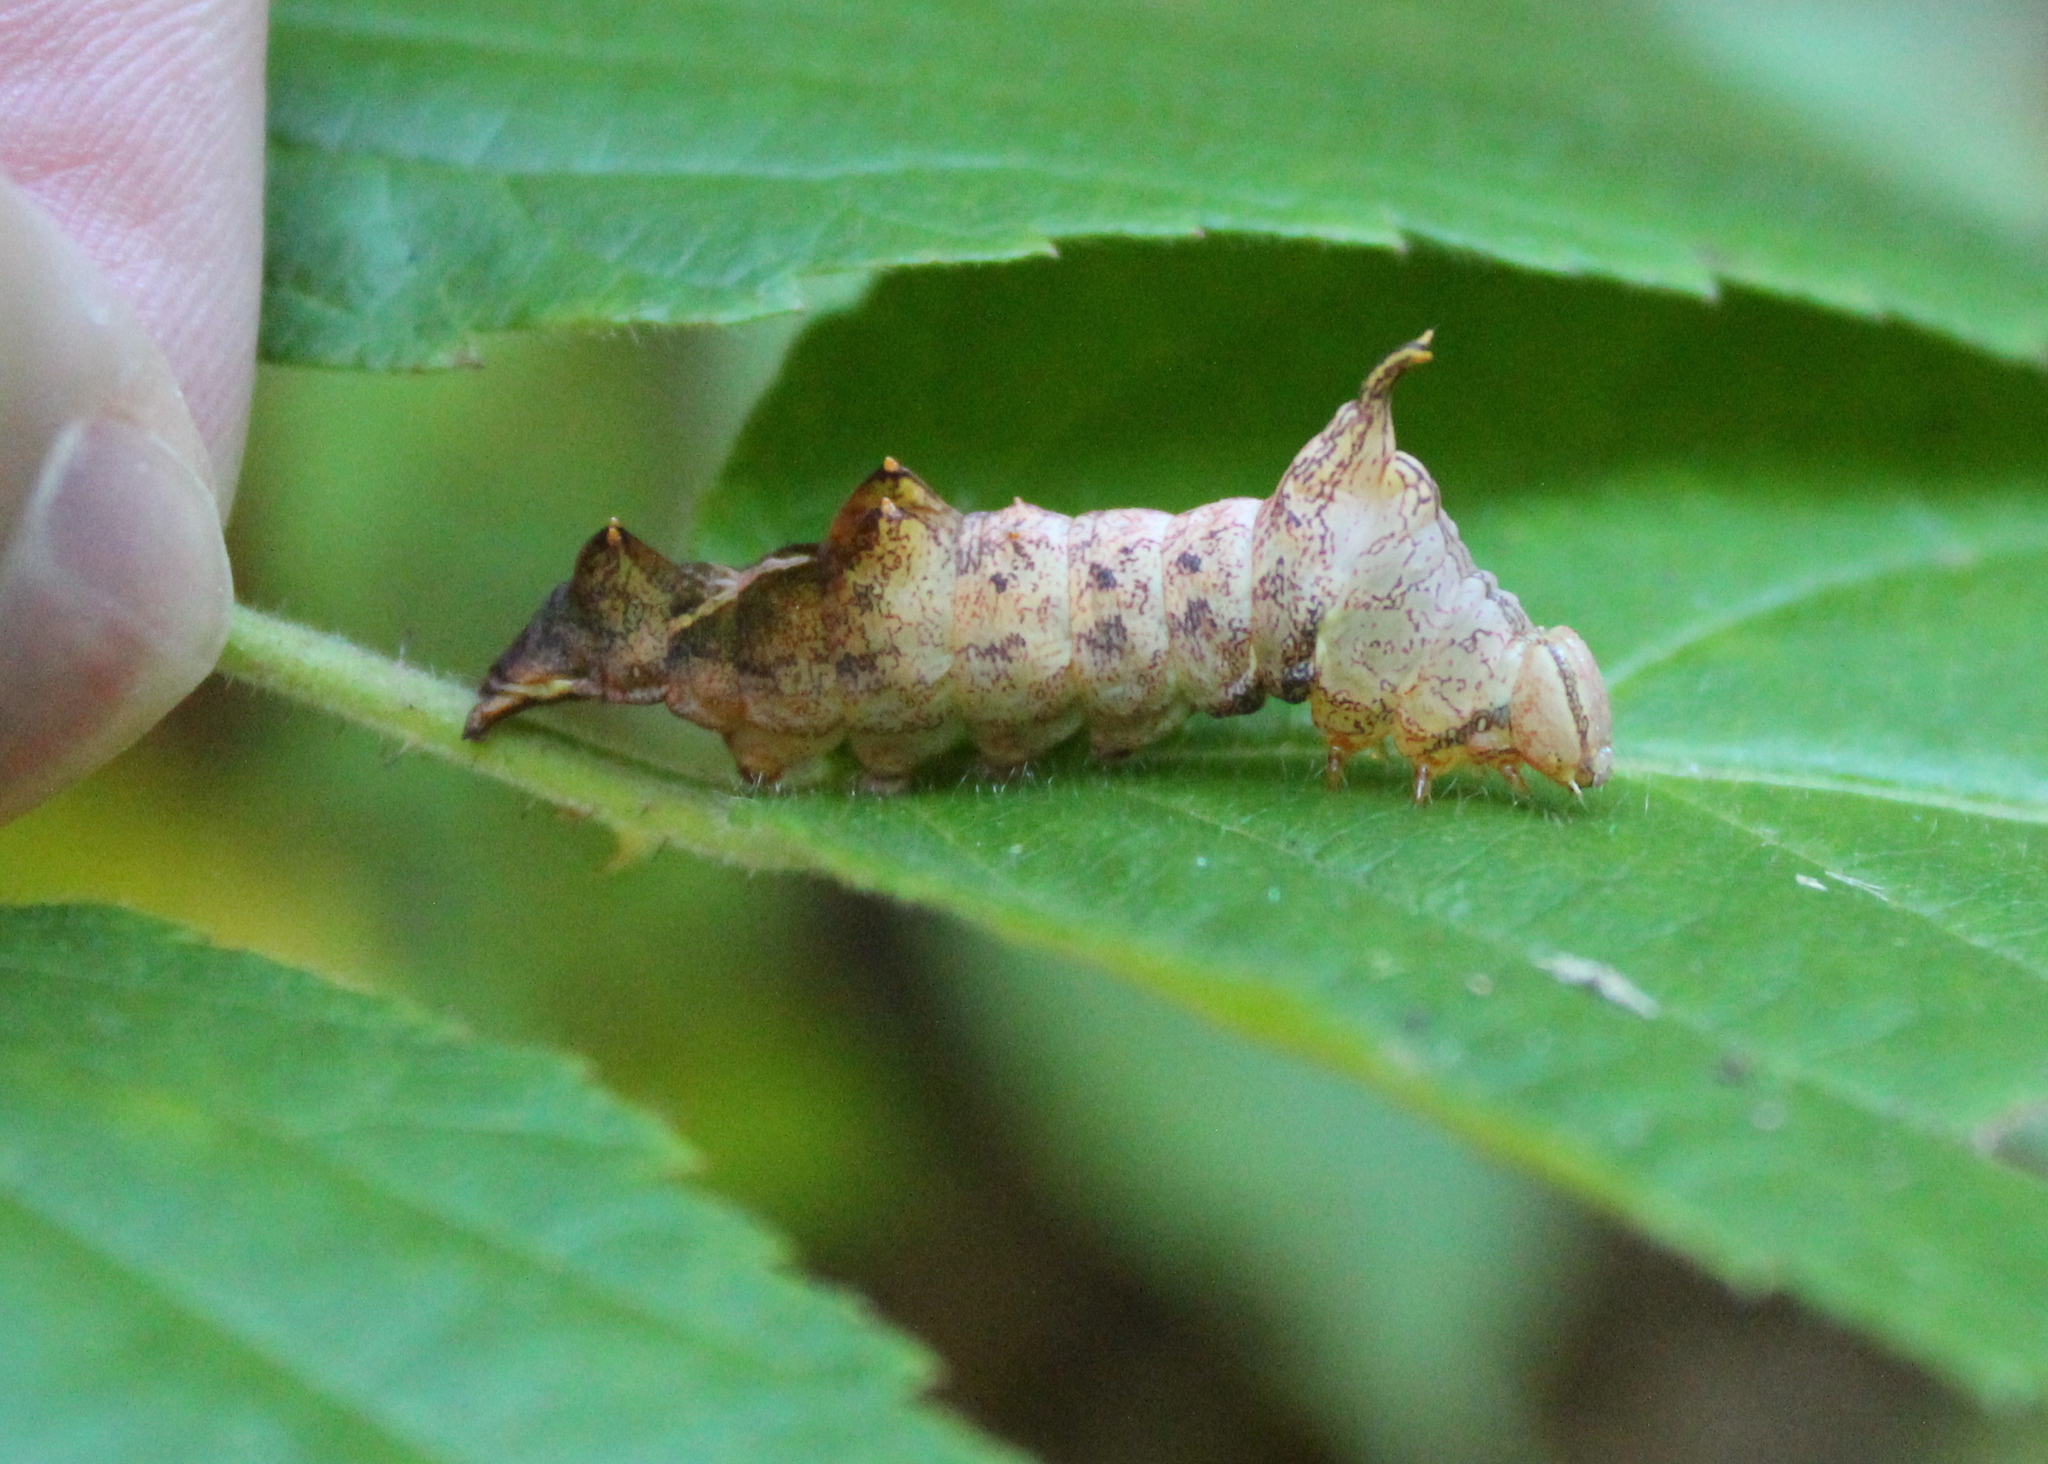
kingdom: Animalia
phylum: Arthropoda
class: Insecta
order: Lepidoptera
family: Notodontidae
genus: Schizura
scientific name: Schizura
